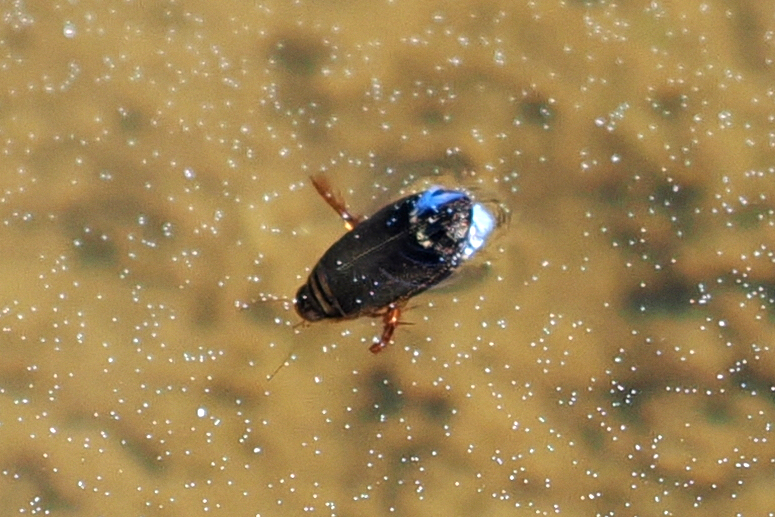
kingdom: Animalia
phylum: Arthropoda
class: Insecta
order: Coleoptera
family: Dytiscidae
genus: Acilius
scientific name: Acilius
